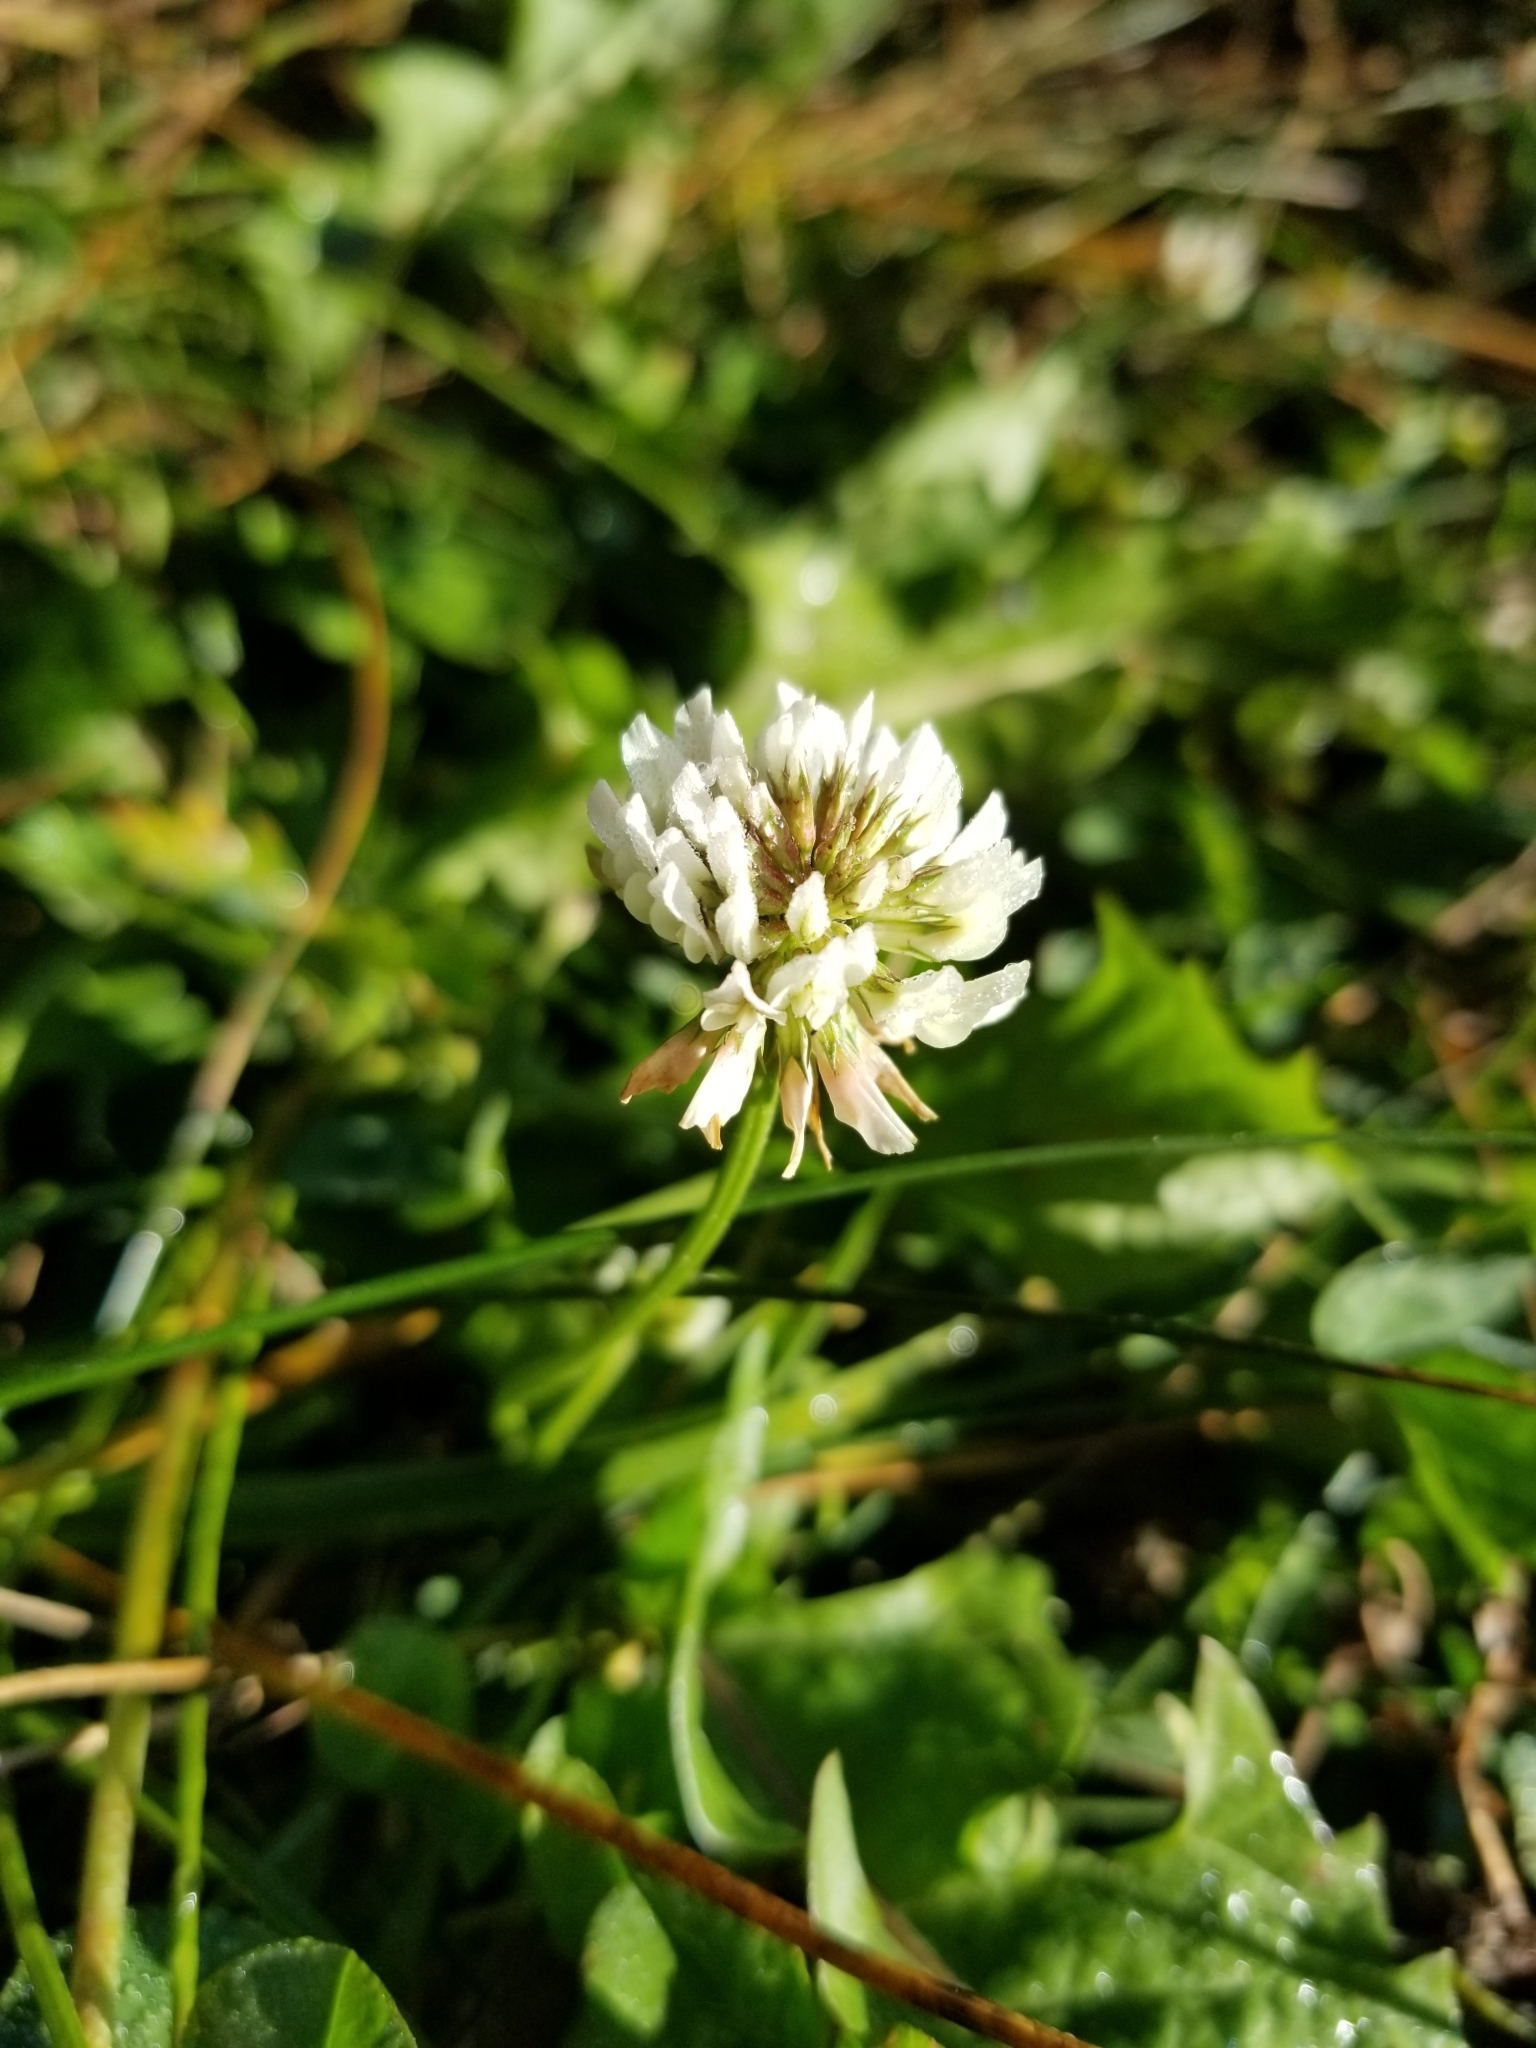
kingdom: Plantae
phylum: Tracheophyta
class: Magnoliopsida
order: Fabales
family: Fabaceae
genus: Trifolium
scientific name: Trifolium repens
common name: White clover
